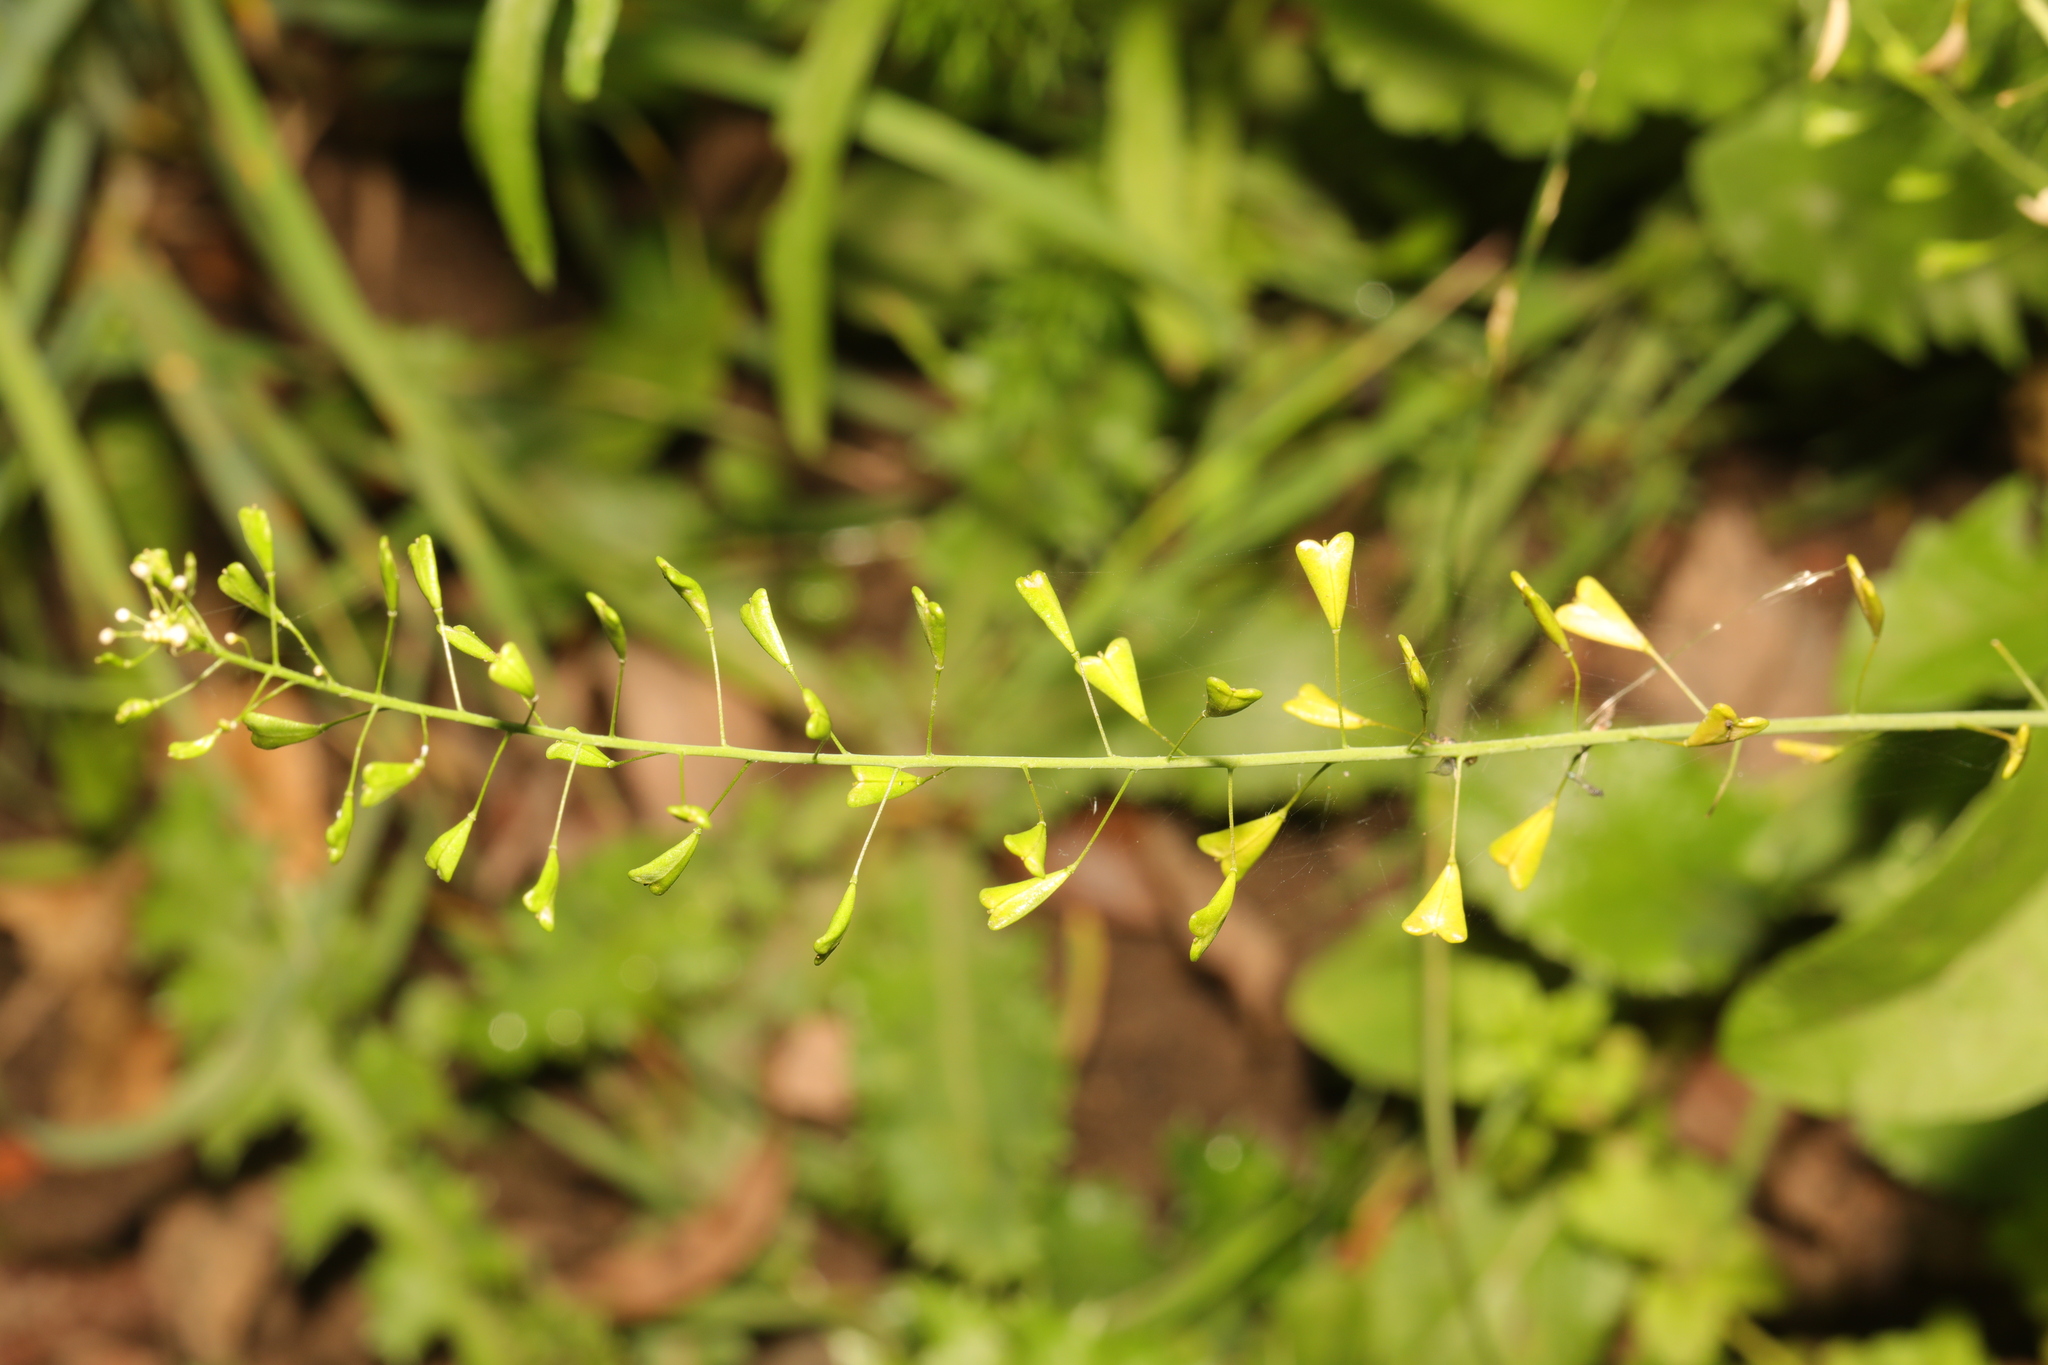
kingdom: Plantae
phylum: Tracheophyta
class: Magnoliopsida
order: Brassicales
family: Brassicaceae
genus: Capsella
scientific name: Capsella bursa-pastoris
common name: Shepherd's purse
